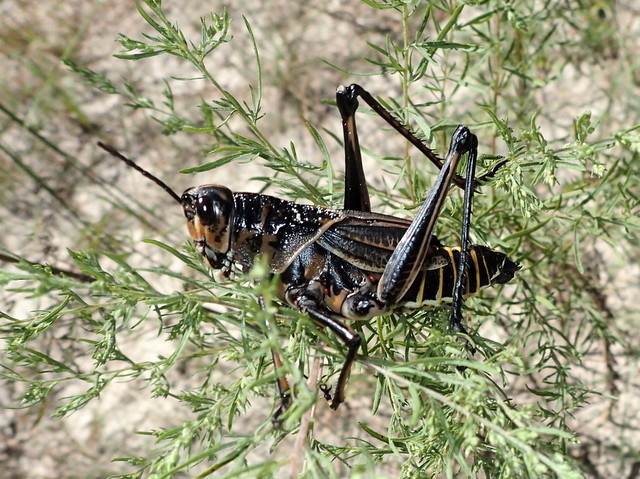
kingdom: Animalia
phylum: Arthropoda
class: Insecta
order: Orthoptera
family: Romaleidae
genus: Romalea
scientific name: Romalea microptera
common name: Eastern lubber grasshopper
